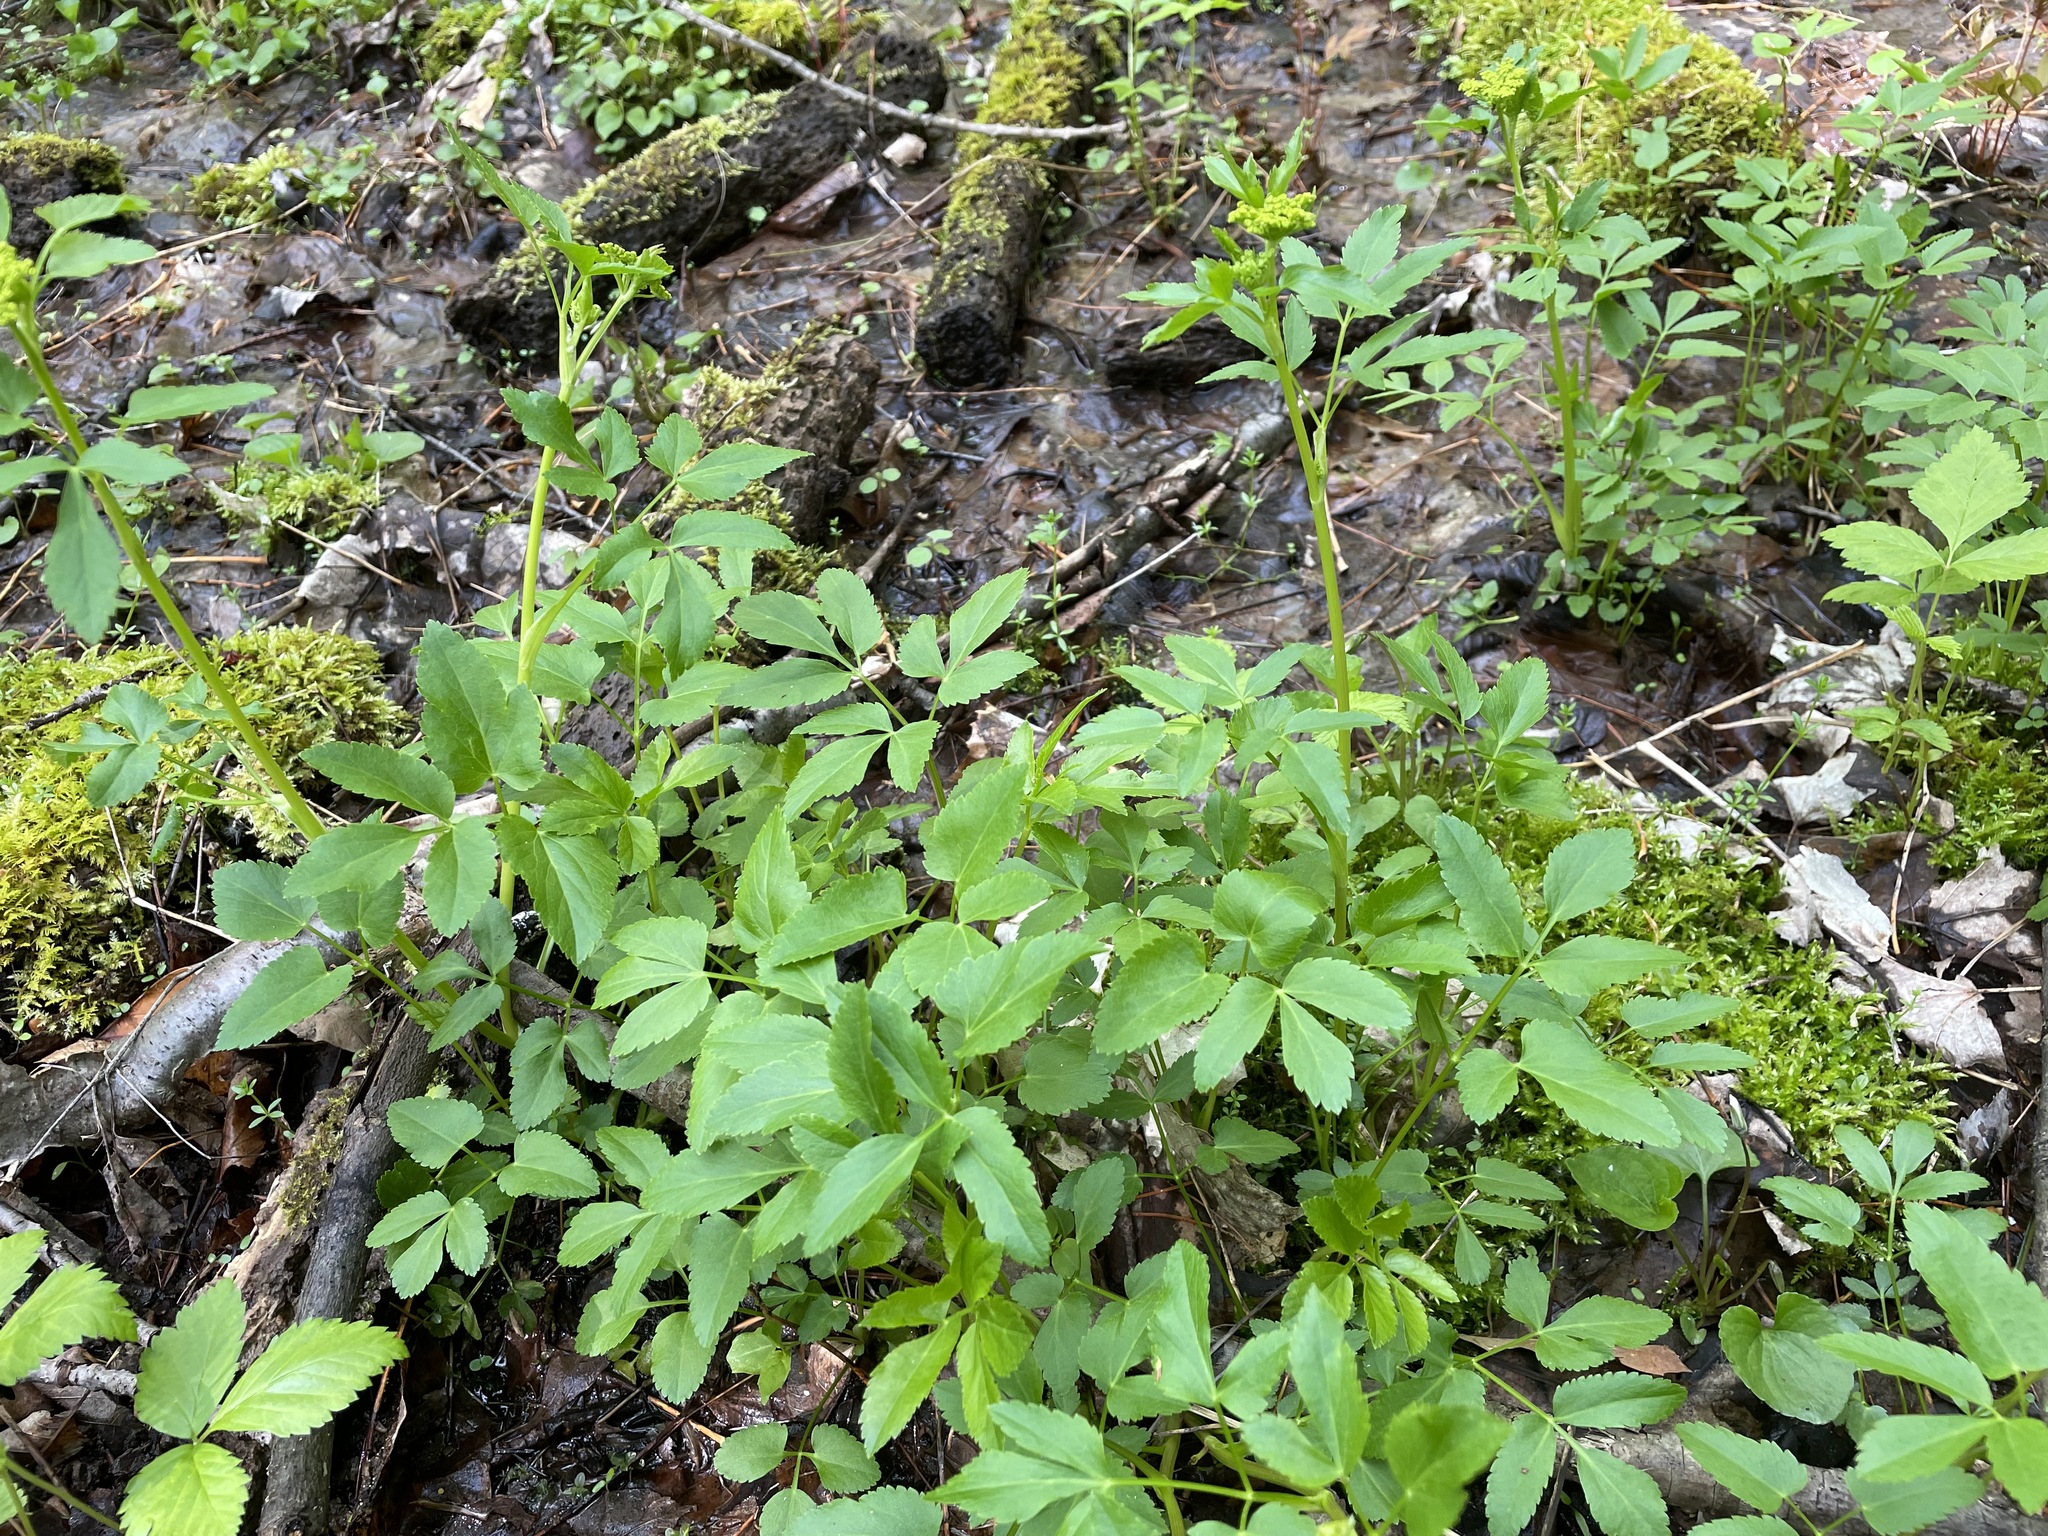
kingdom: Plantae
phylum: Tracheophyta
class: Magnoliopsida
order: Apiales
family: Apiaceae
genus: Zizia
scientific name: Zizia aurea
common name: Golden alexanders
